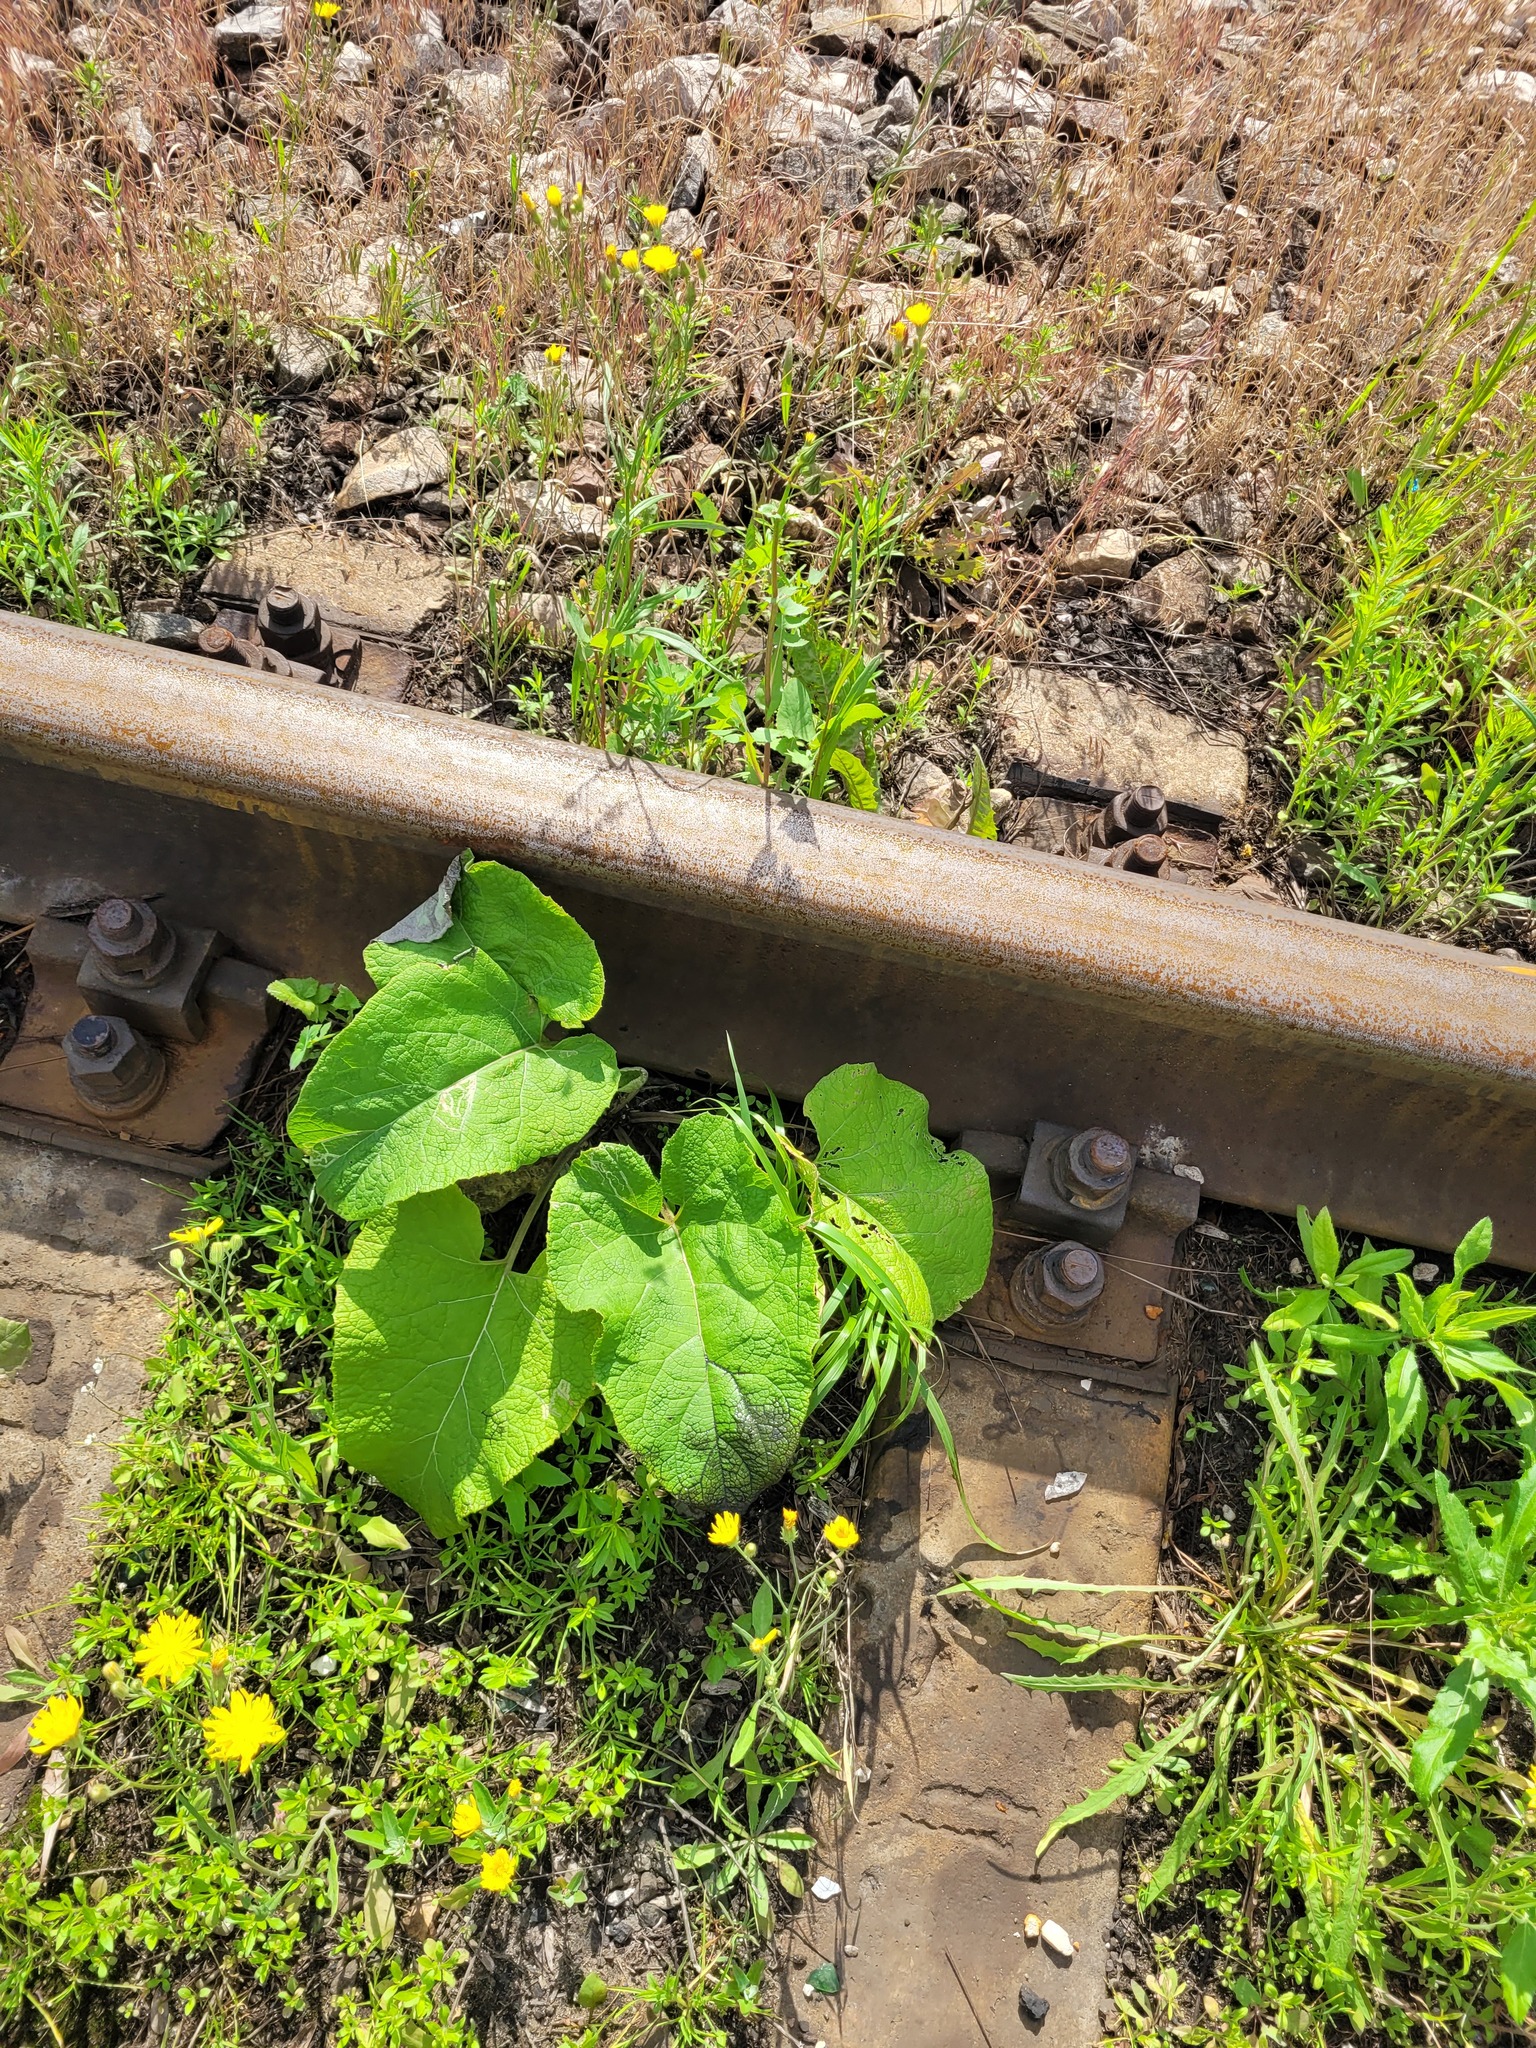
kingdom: Plantae
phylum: Tracheophyta
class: Magnoliopsida
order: Asterales
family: Asteraceae
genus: Arctium
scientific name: Arctium
